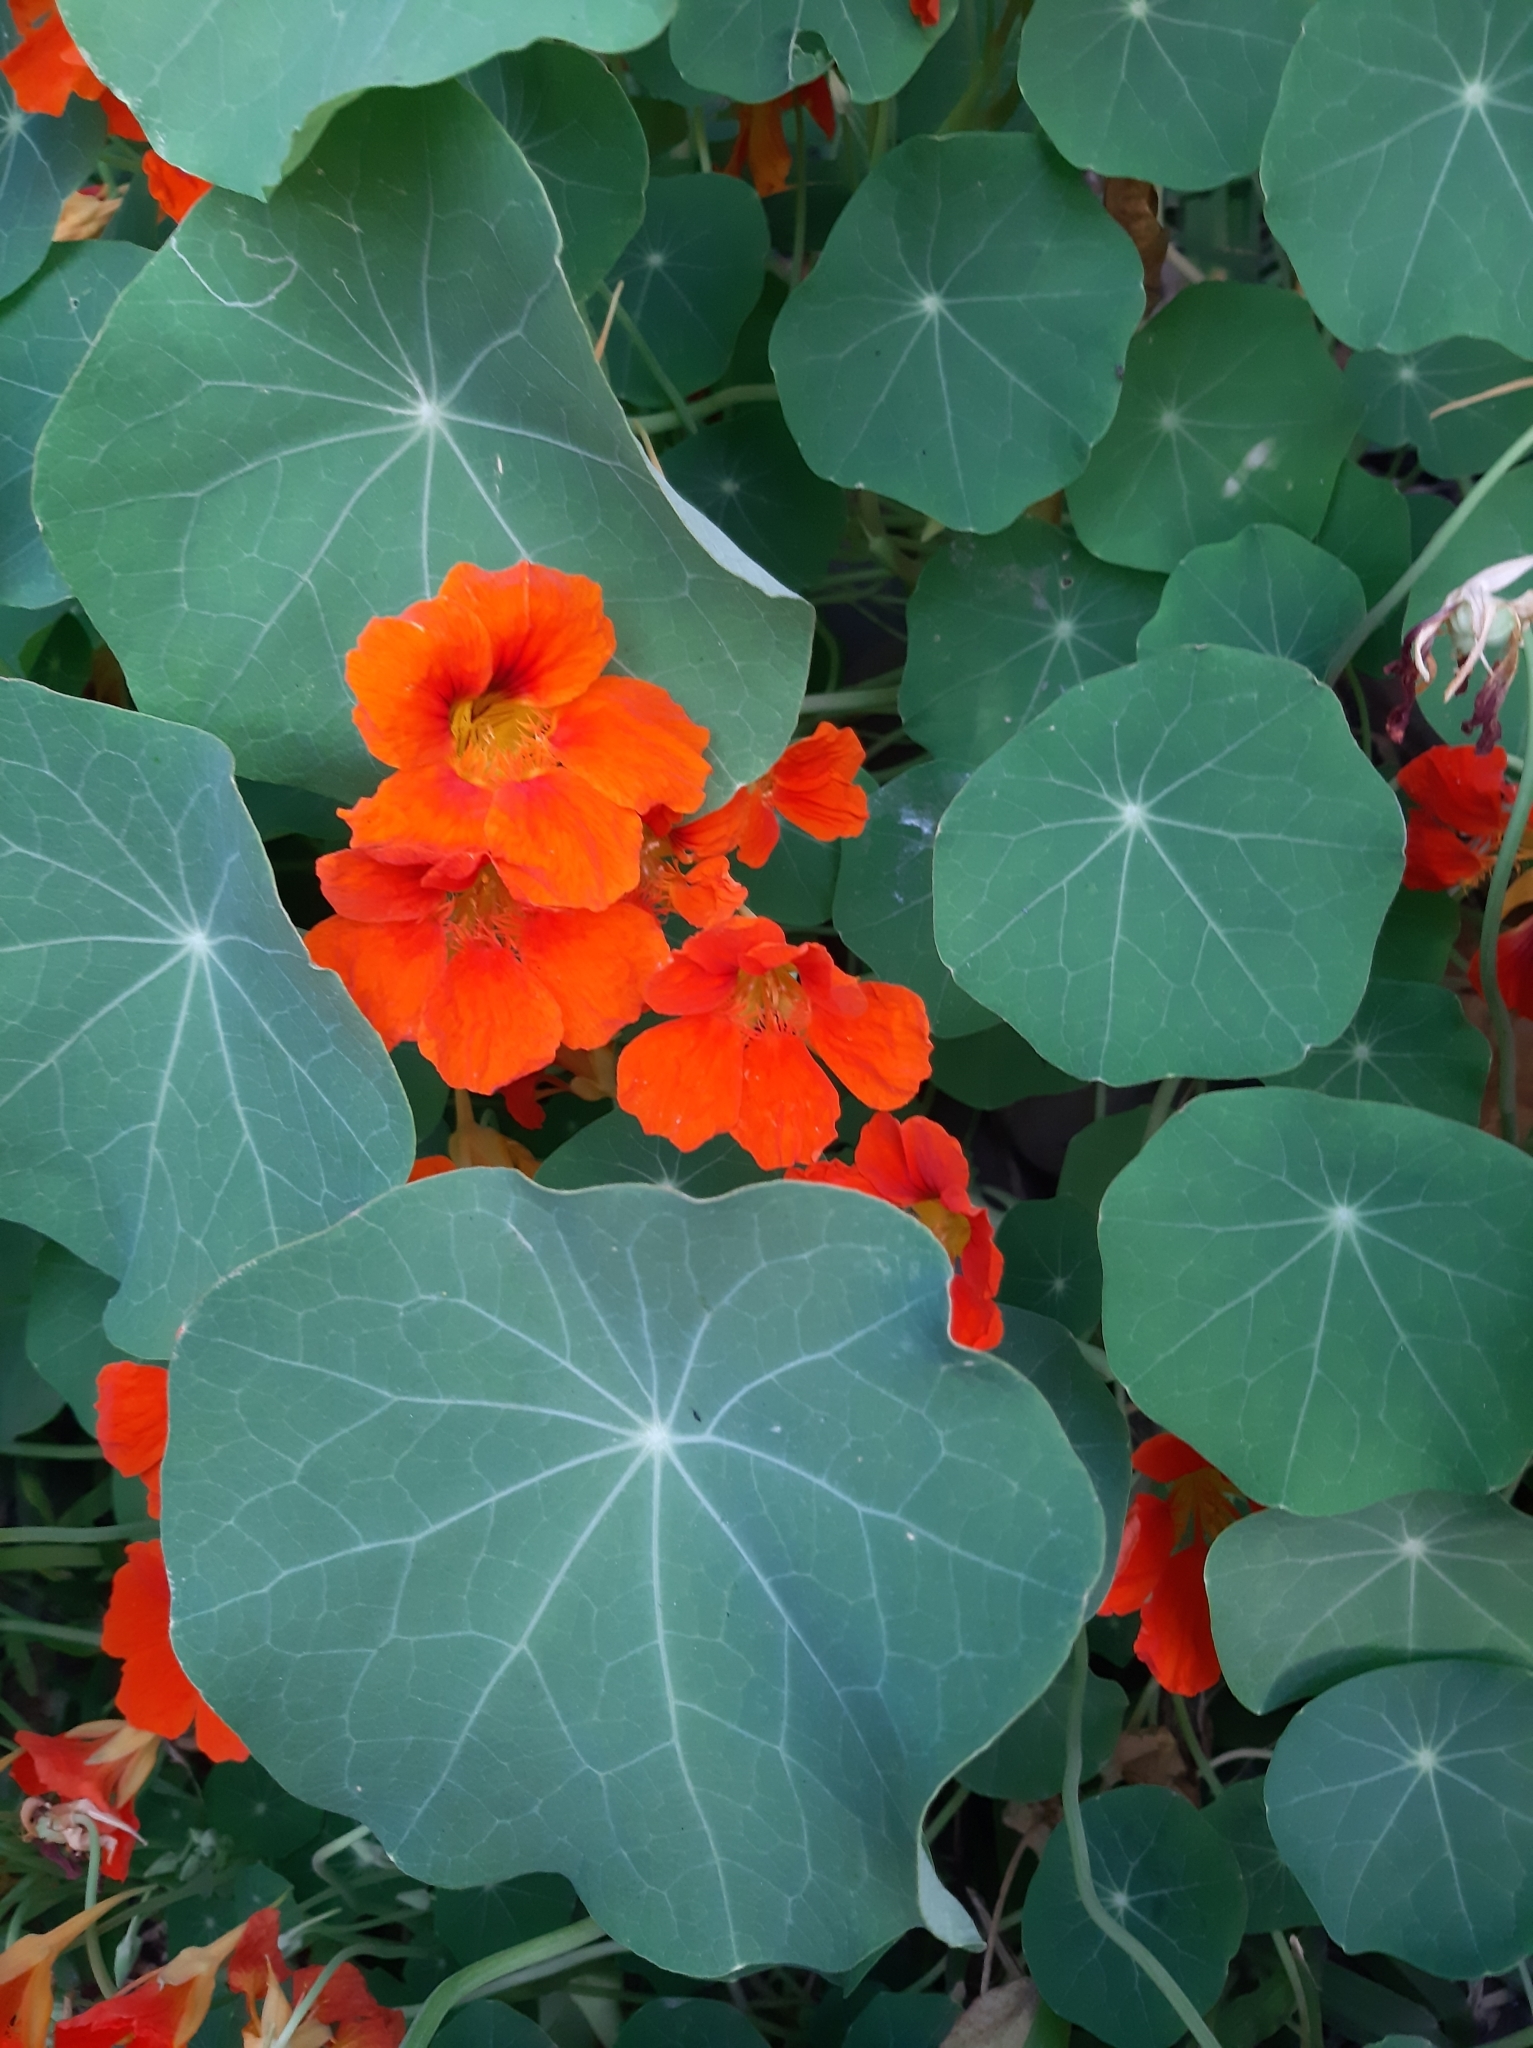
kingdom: Plantae
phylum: Tracheophyta
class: Magnoliopsida
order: Brassicales
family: Tropaeolaceae
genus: Tropaeolum
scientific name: Tropaeolum majus
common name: Nasturtium
